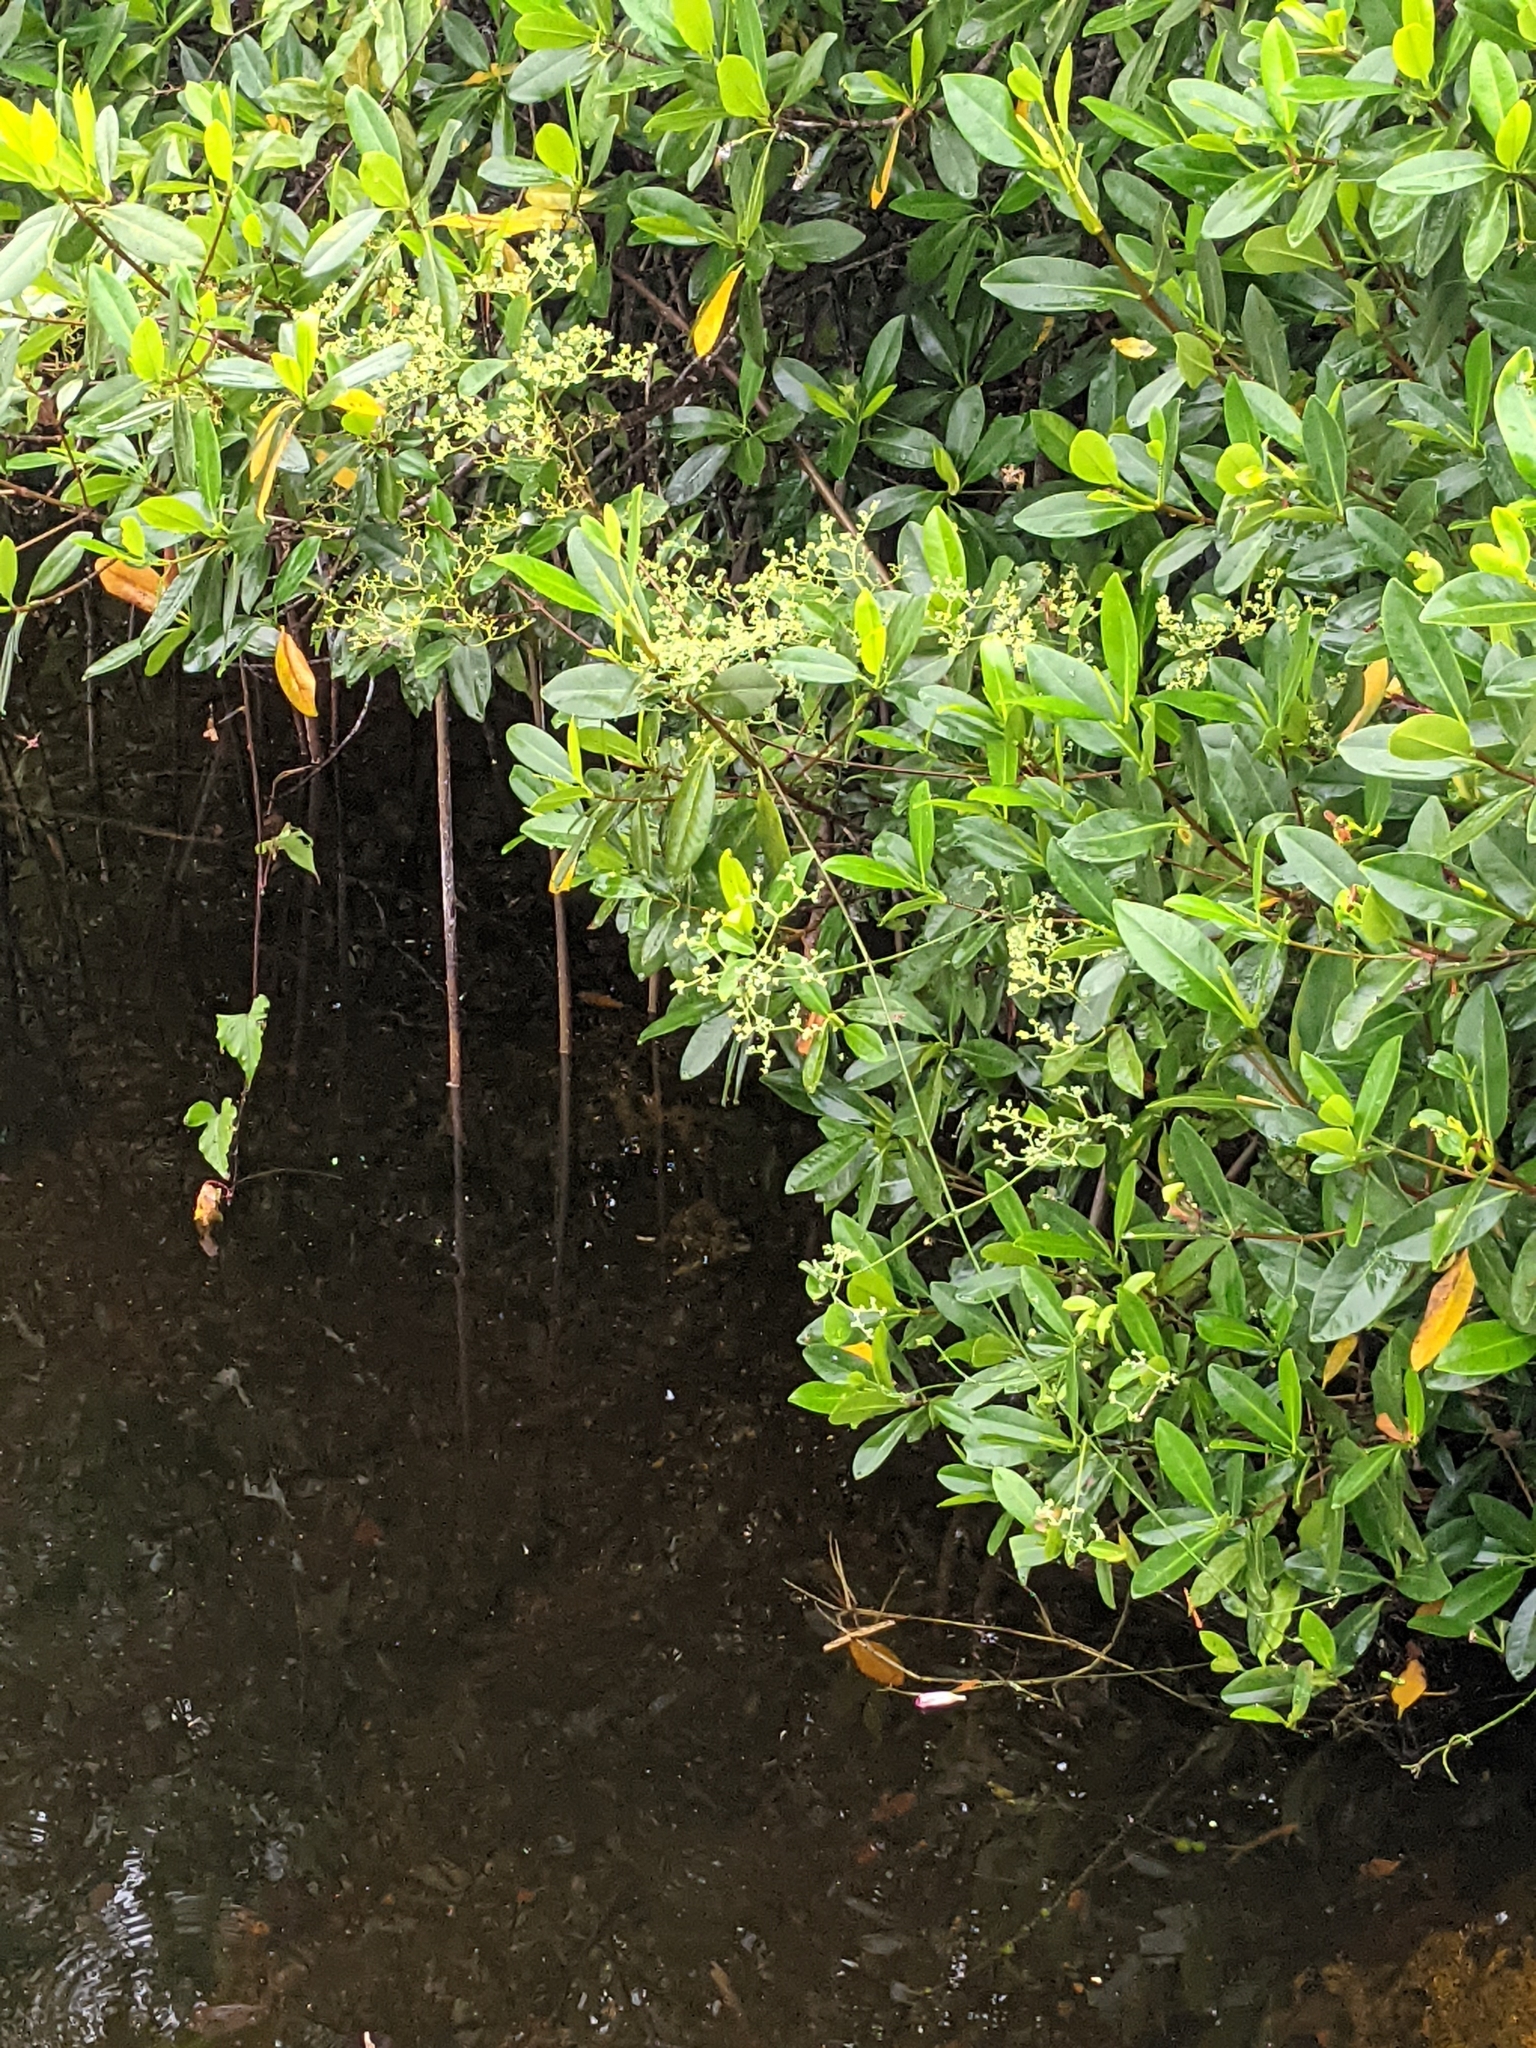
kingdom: Plantae
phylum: Tracheophyta
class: Magnoliopsida
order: Celastrales
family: Celastraceae
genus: Hippocratea
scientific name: Hippocratea volubilis
